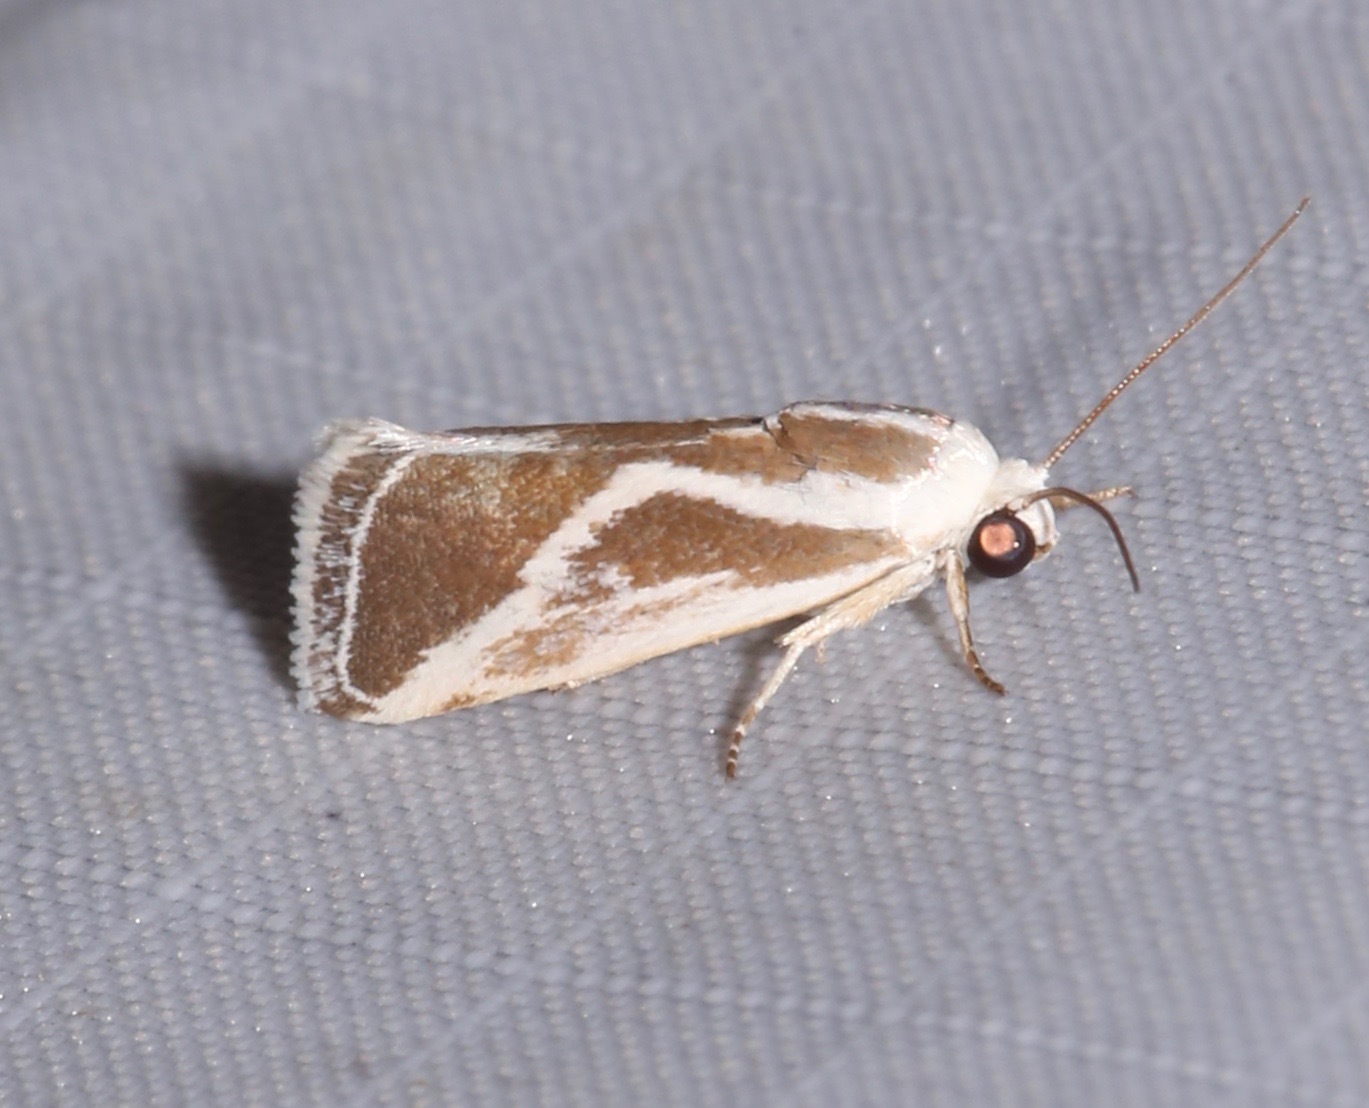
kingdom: Animalia
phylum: Arthropoda
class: Insecta
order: Lepidoptera
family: Noctuidae
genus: Acontia
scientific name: Acontia alata
